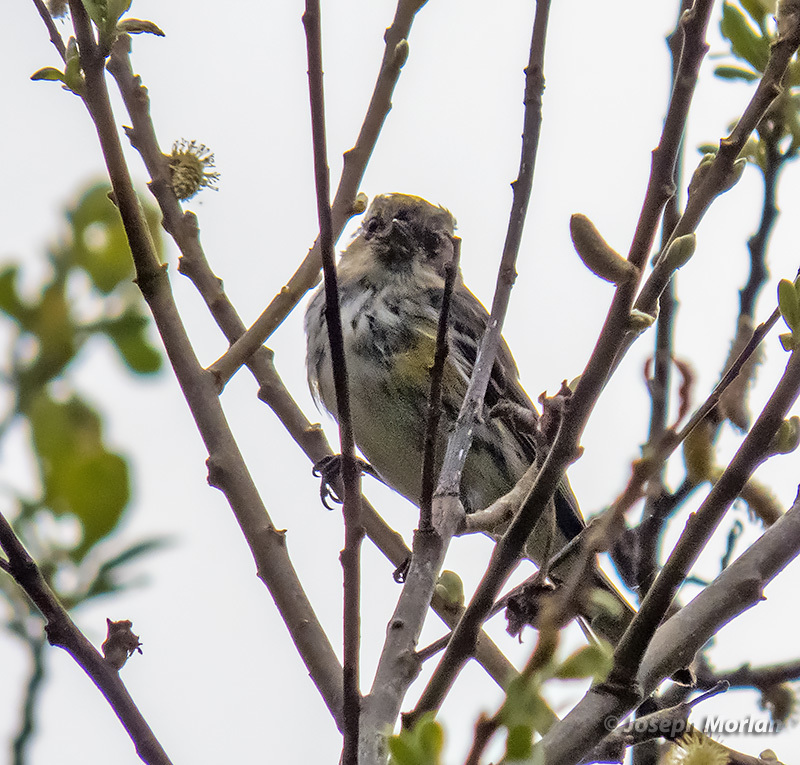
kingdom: Animalia
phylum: Chordata
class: Aves
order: Passeriformes
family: Parulidae
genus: Setophaga
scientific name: Setophaga coronata
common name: Myrtle warbler
